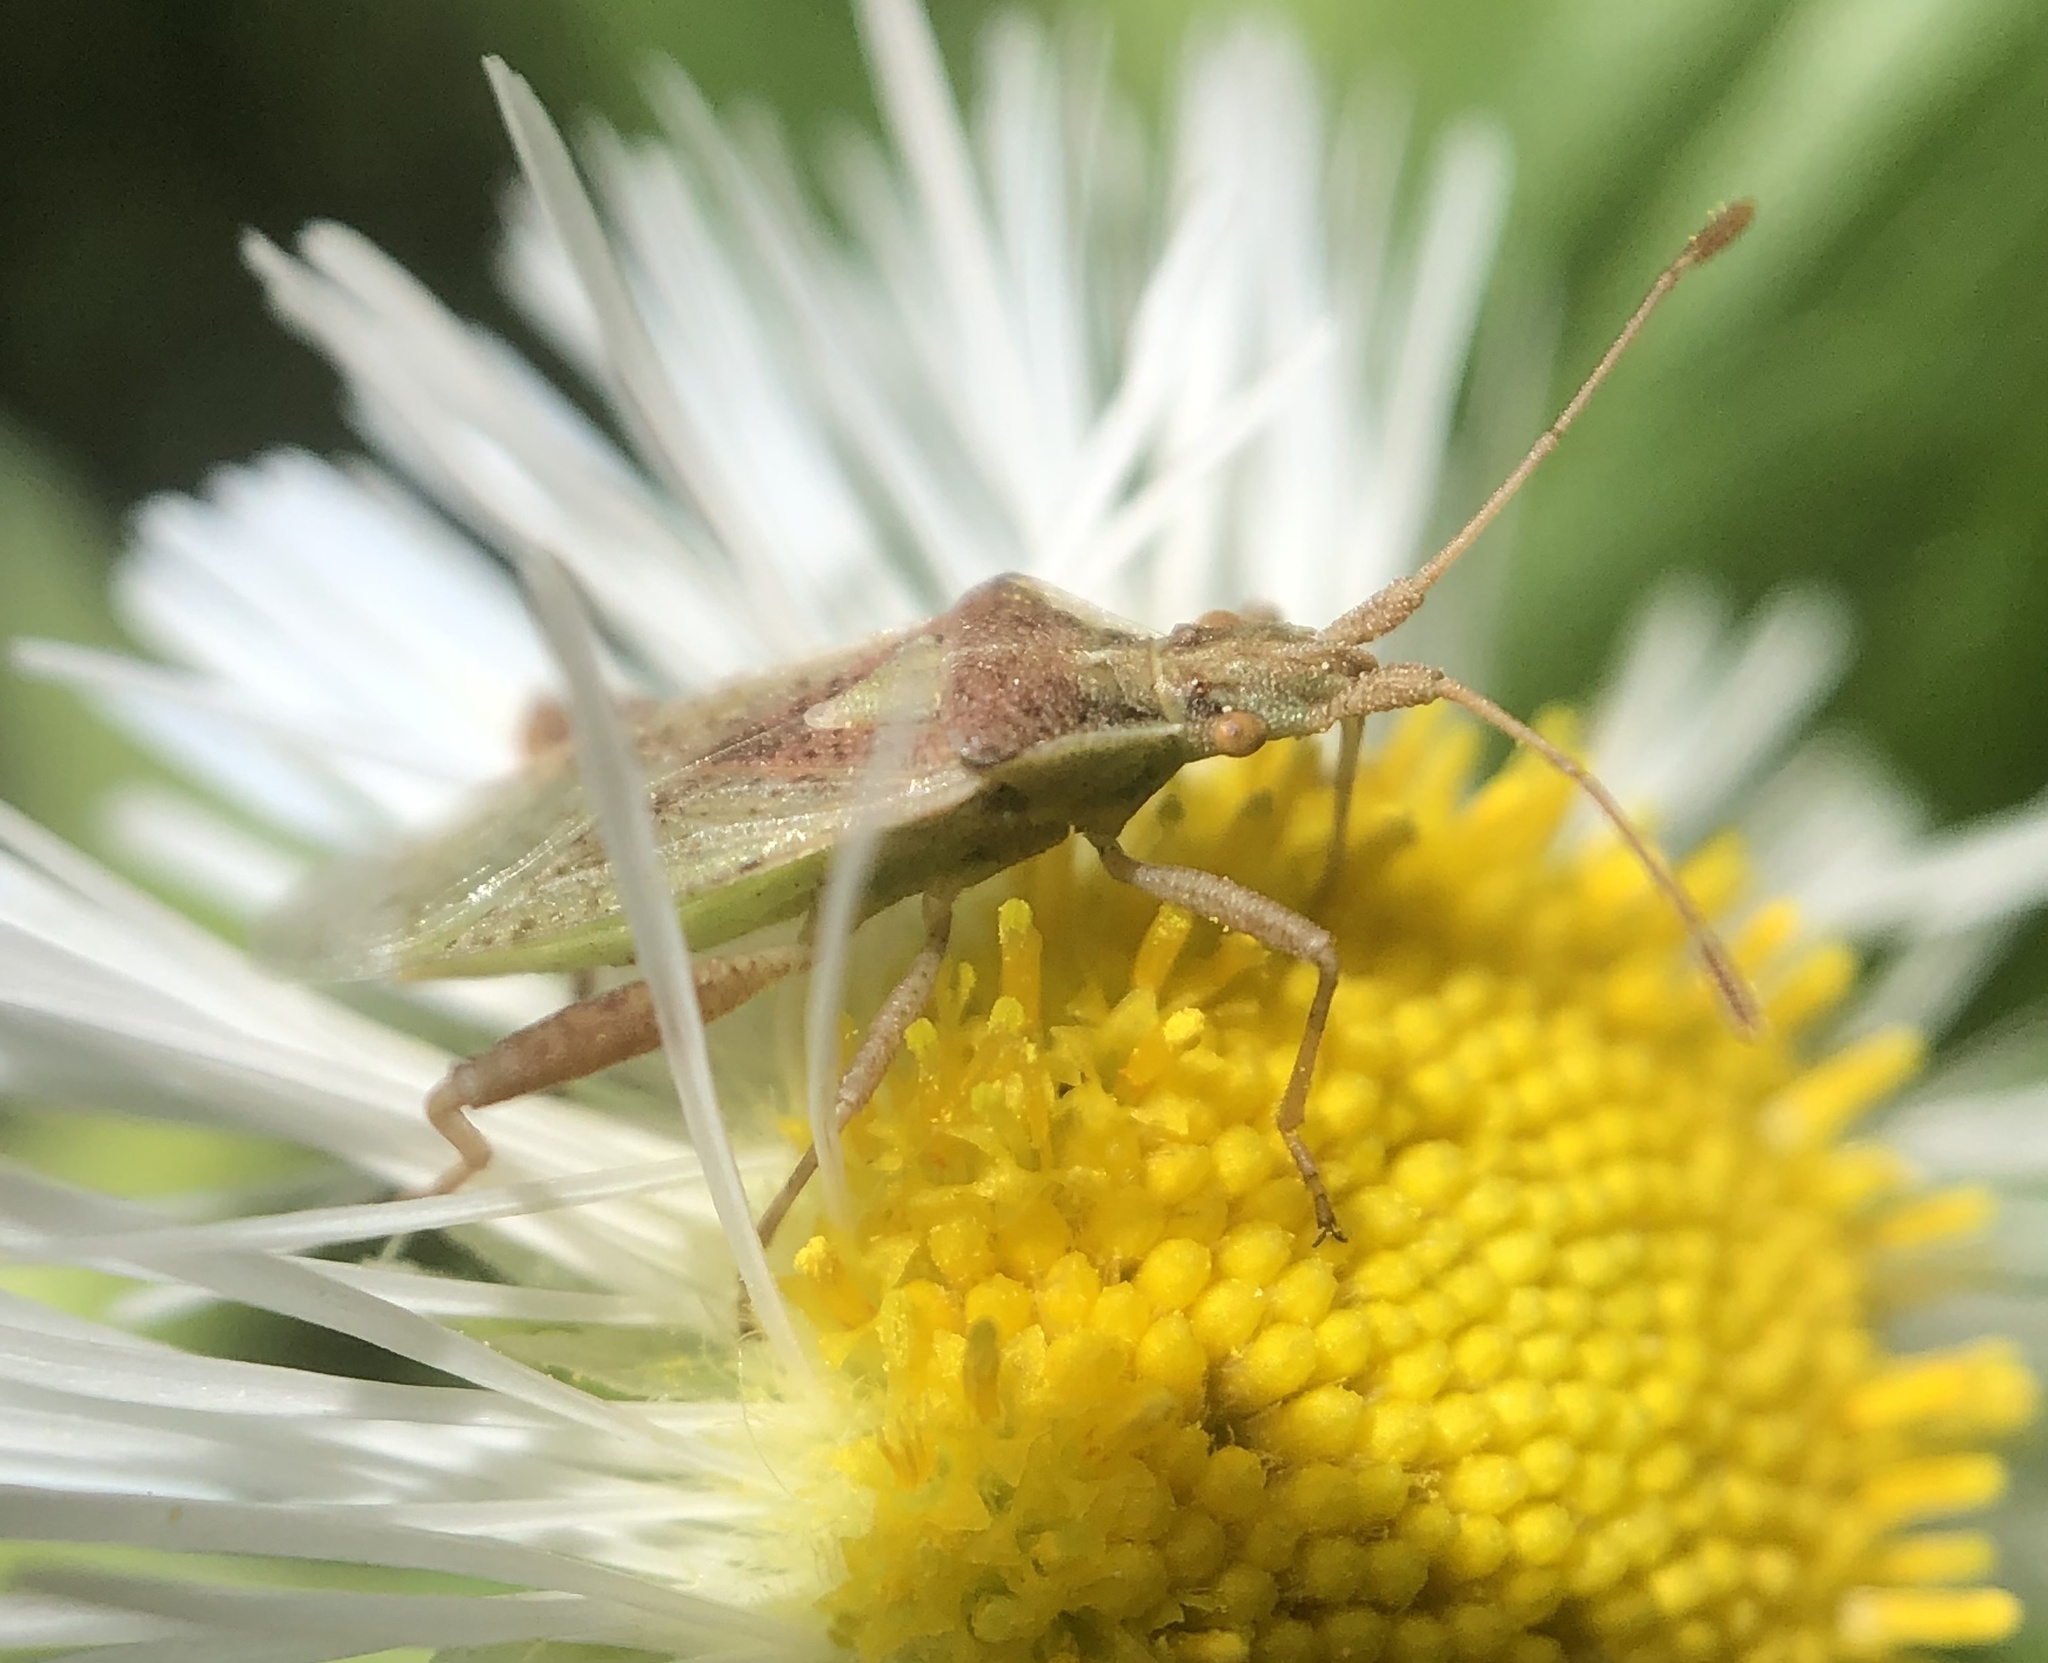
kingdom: Animalia
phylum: Arthropoda
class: Insecta
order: Hemiptera
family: Rhopalidae
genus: Harmostes
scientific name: Harmostes reflexulus
